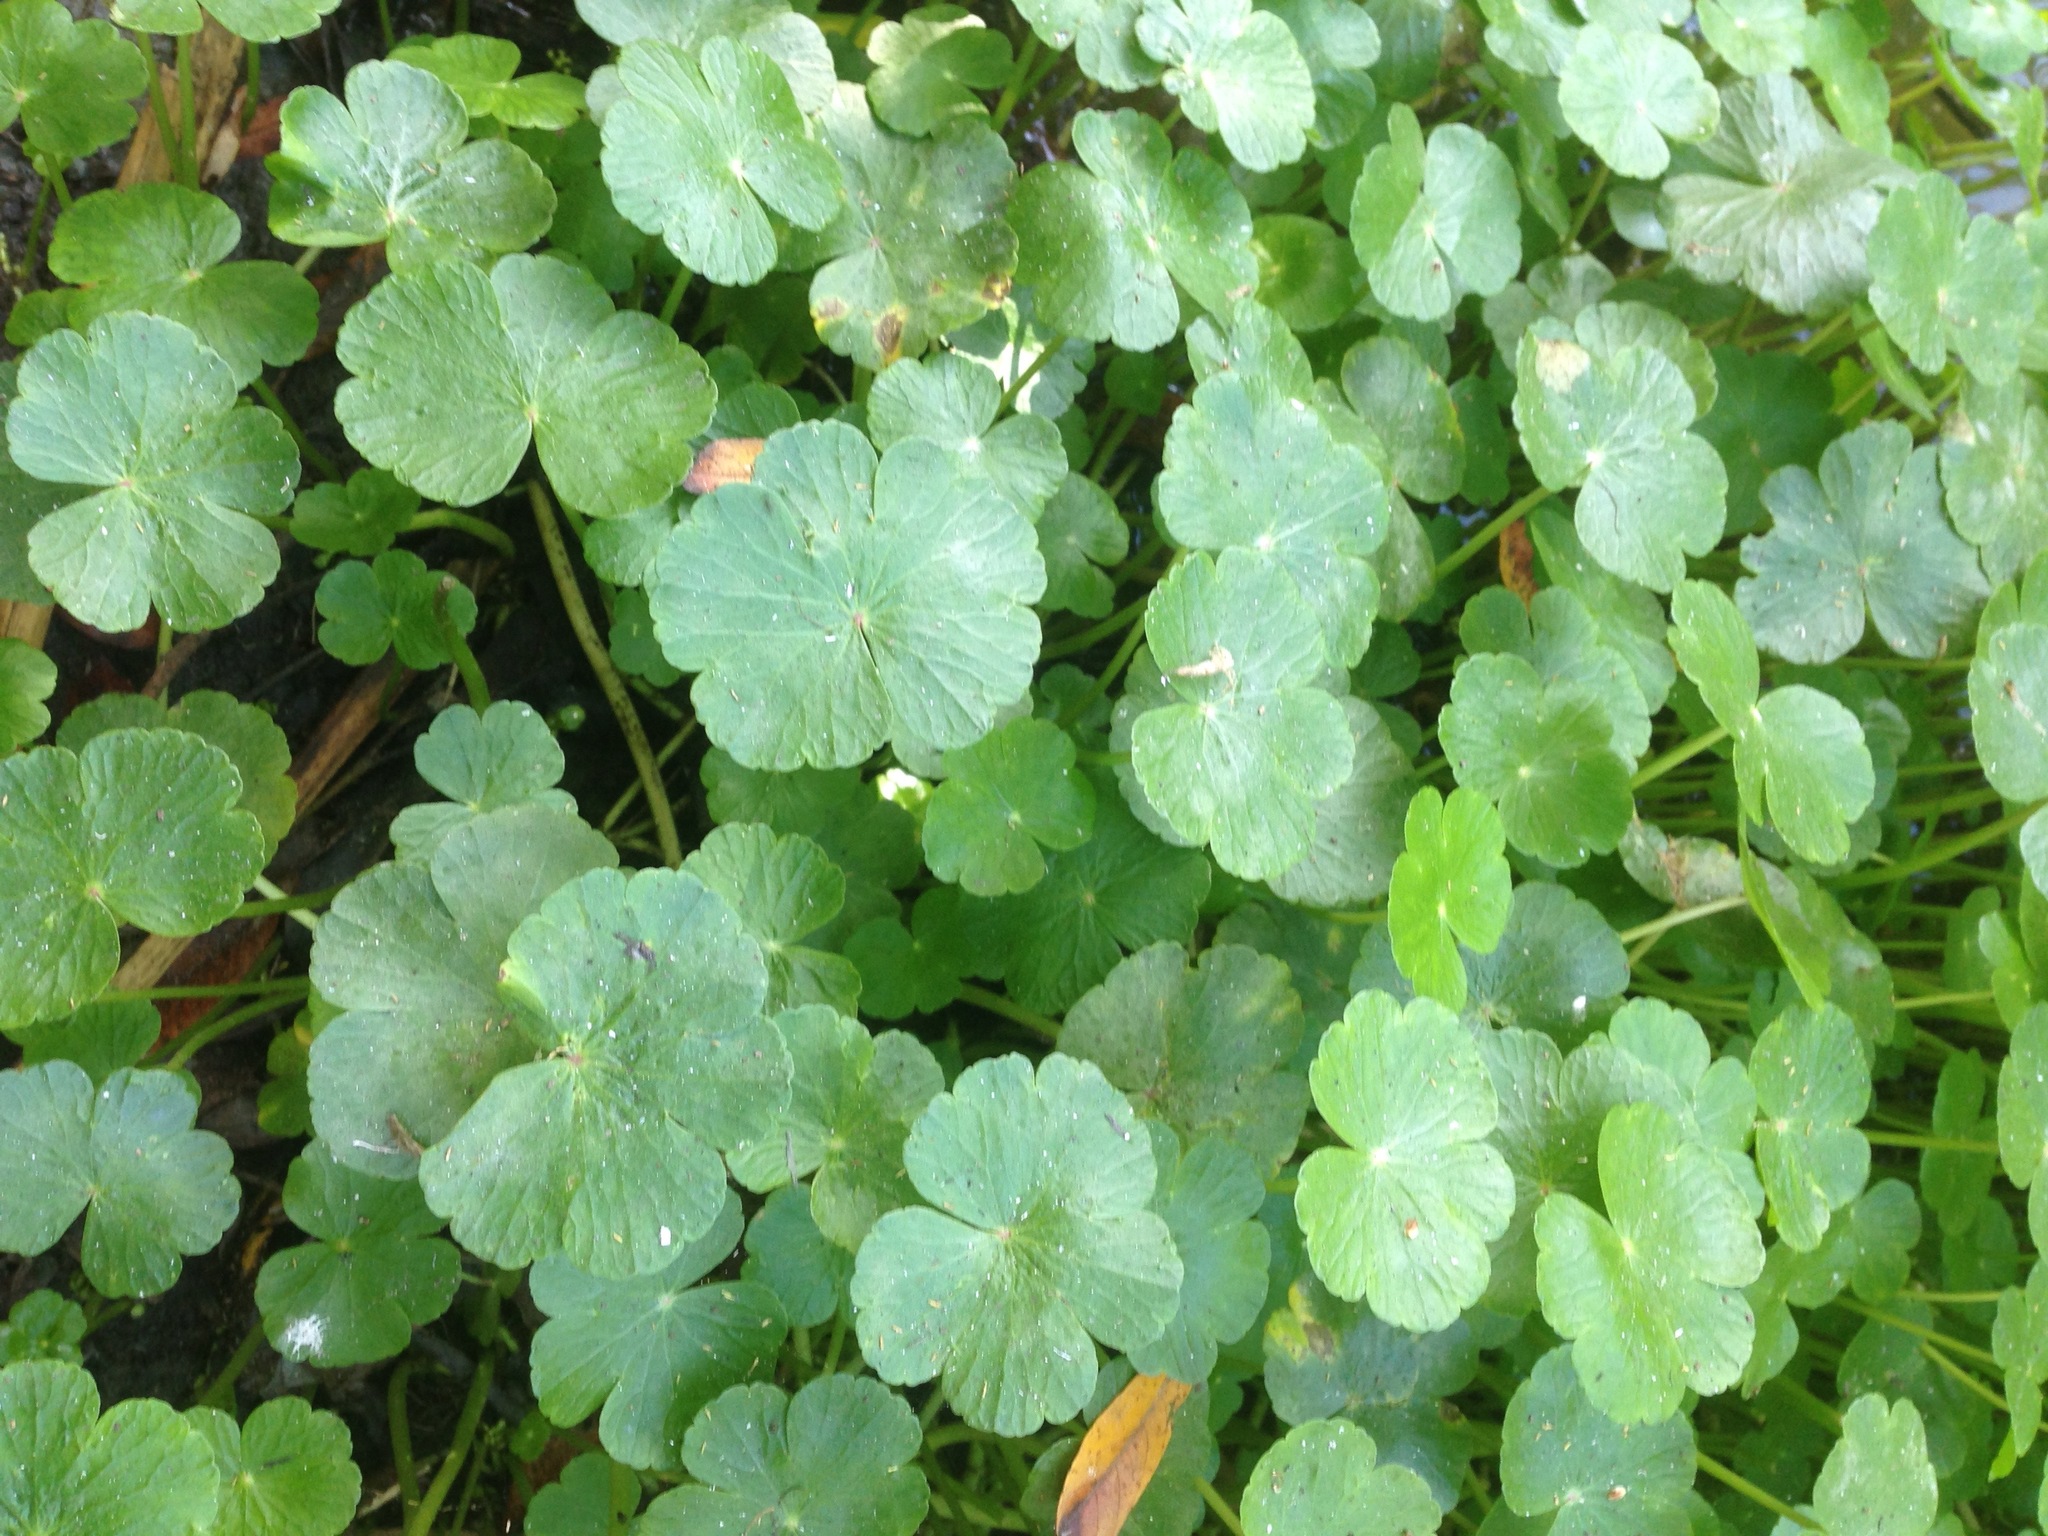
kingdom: Plantae
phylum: Tracheophyta
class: Magnoliopsida
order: Apiales
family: Araliaceae
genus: Hydrocotyle
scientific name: Hydrocotyle ranunculoides
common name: Floating pennywort
